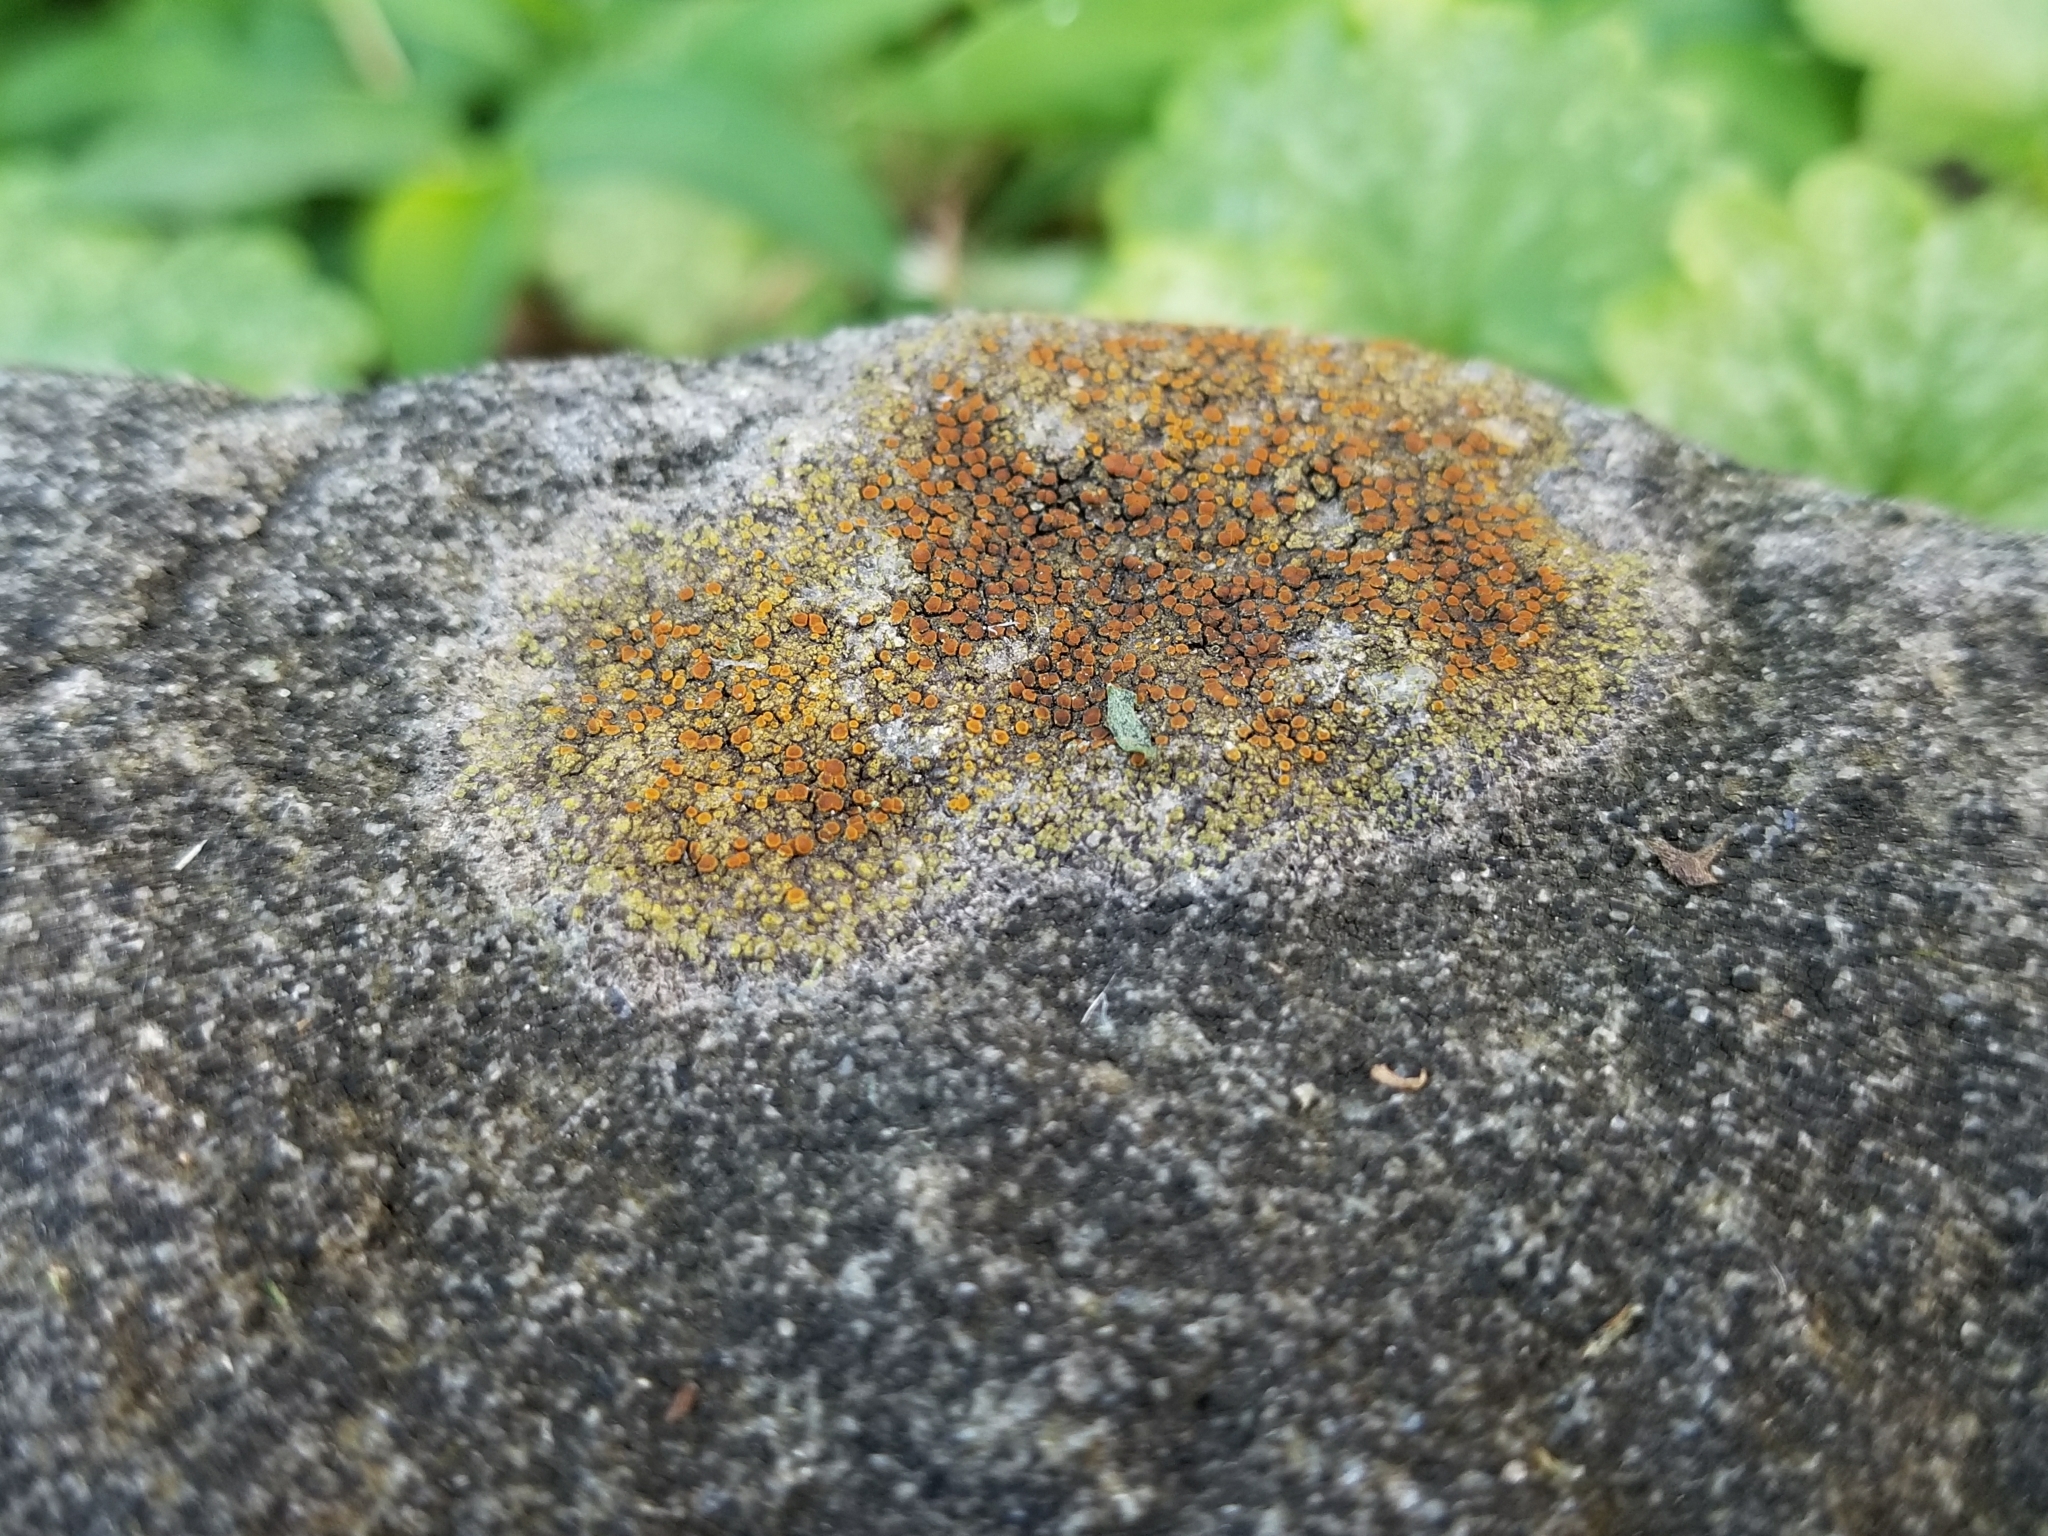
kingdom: Fungi
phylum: Ascomycota
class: Lecanoromycetes
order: Teloschistales
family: Teloschistaceae
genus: Gyalolechia
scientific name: Gyalolechia flavovirescens
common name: Sulphur firedot
